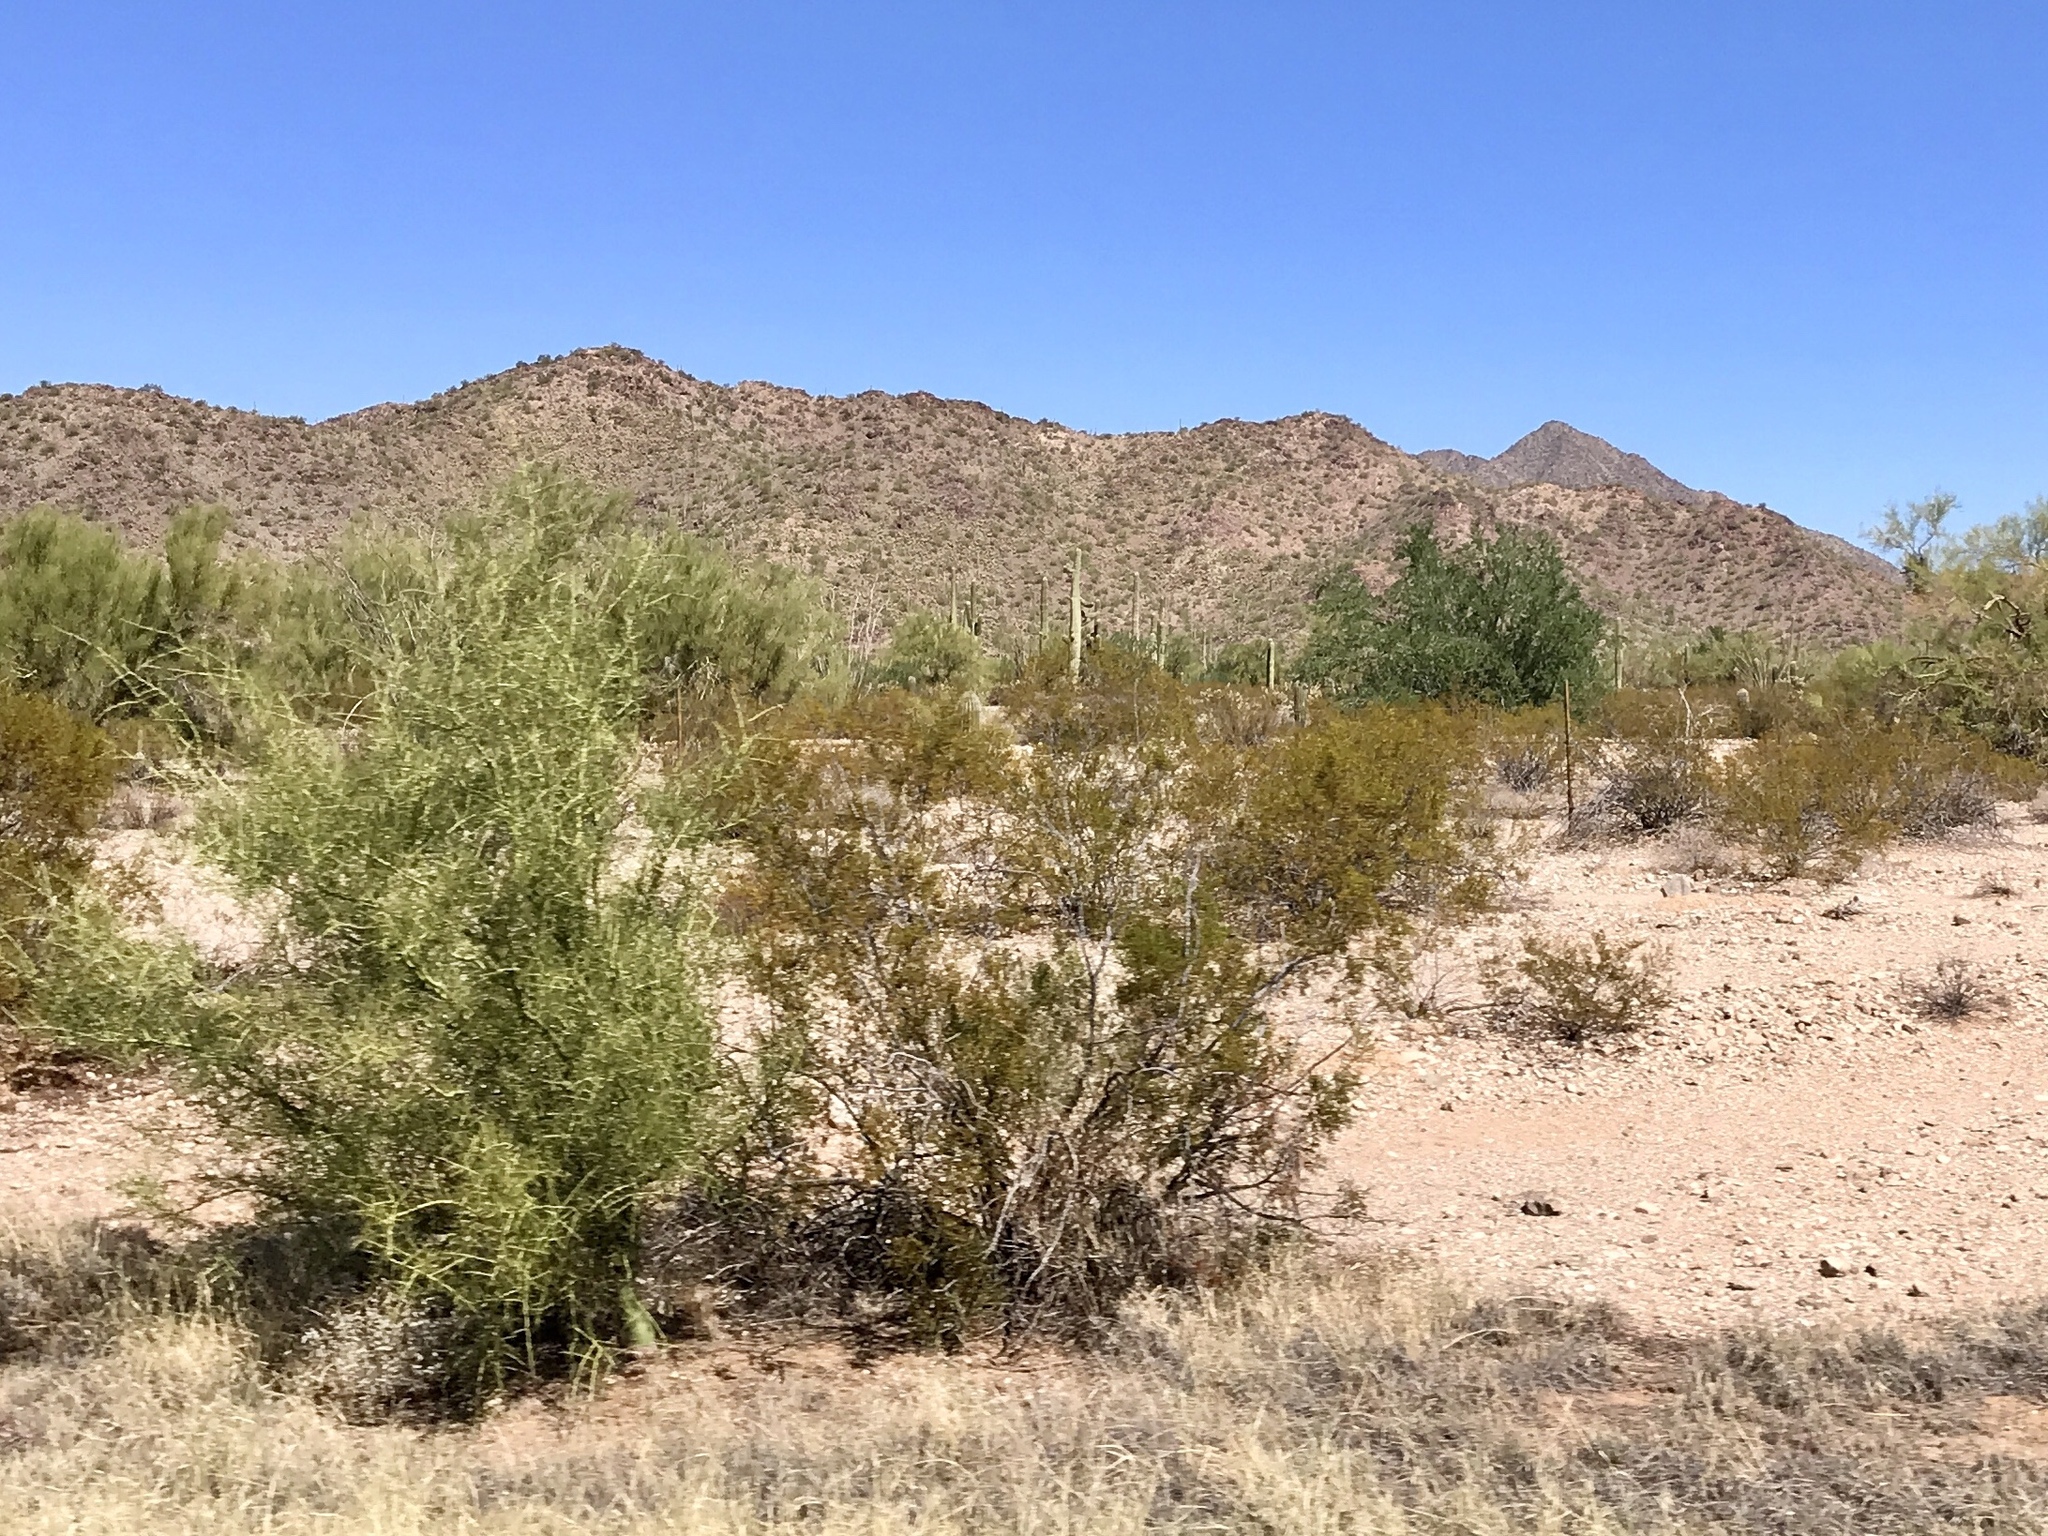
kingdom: Plantae
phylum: Tracheophyta
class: Magnoliopsida
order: Zygophyllales
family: Zygophyllaceae
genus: Larrea
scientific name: Larrea tridentata
